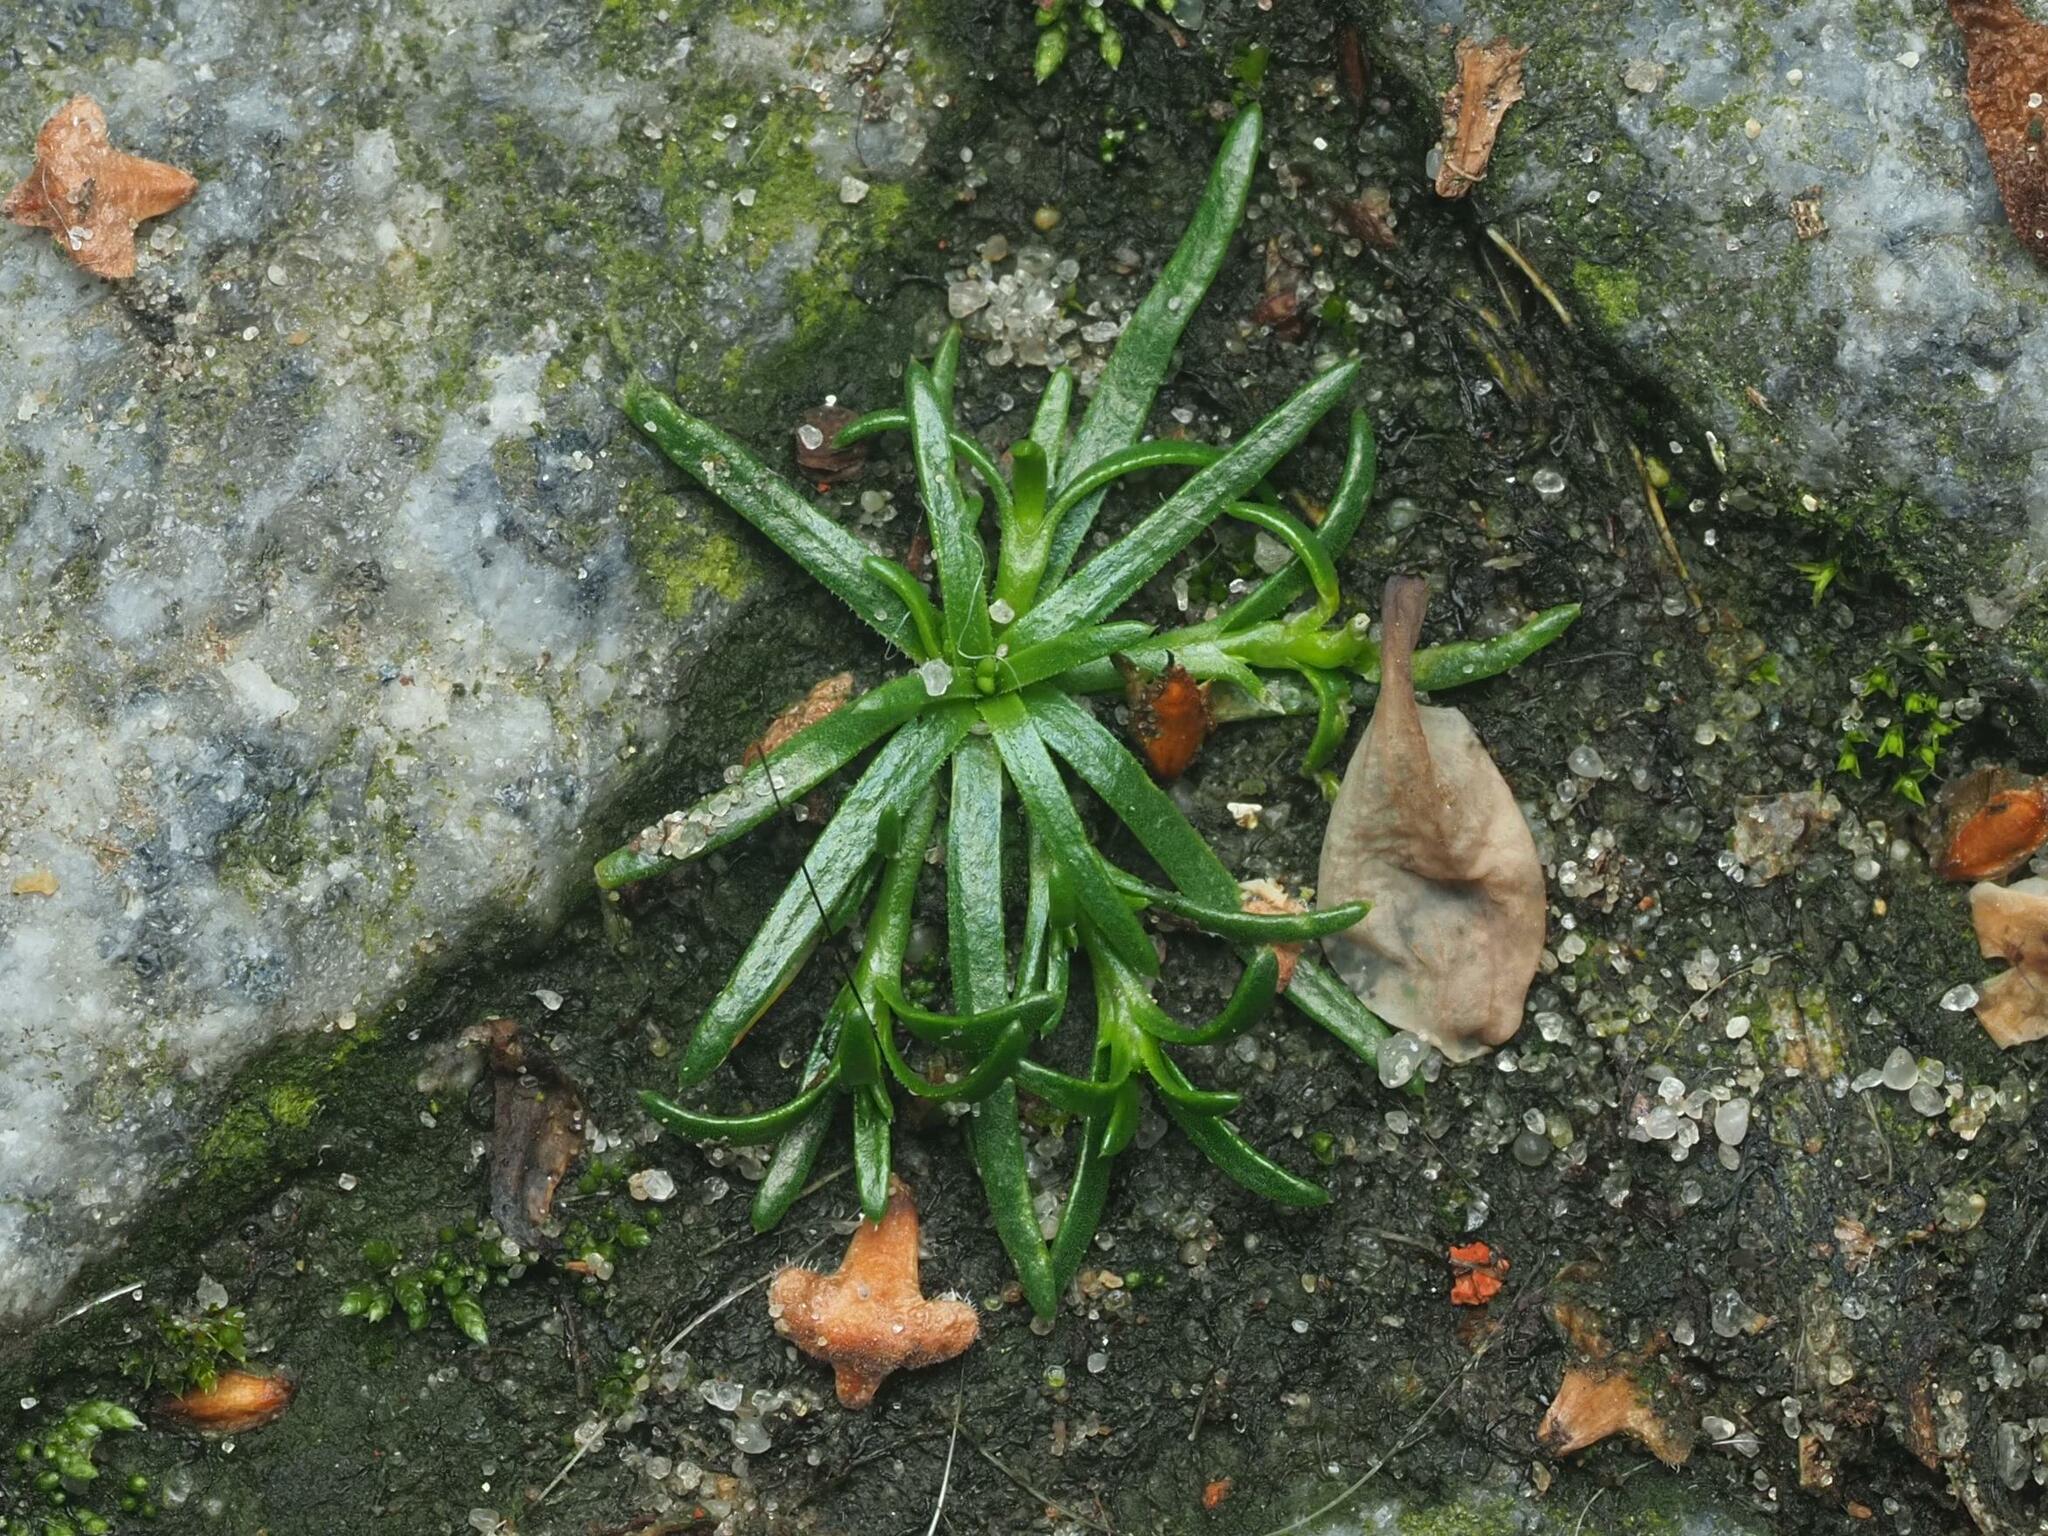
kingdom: Plantae
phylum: Tracheophyta
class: Magnoliopsida
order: Caryophyllales
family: Caryophyllaceae
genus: Sagina
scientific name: Sagina procumbens
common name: Procumbent pearlwort
